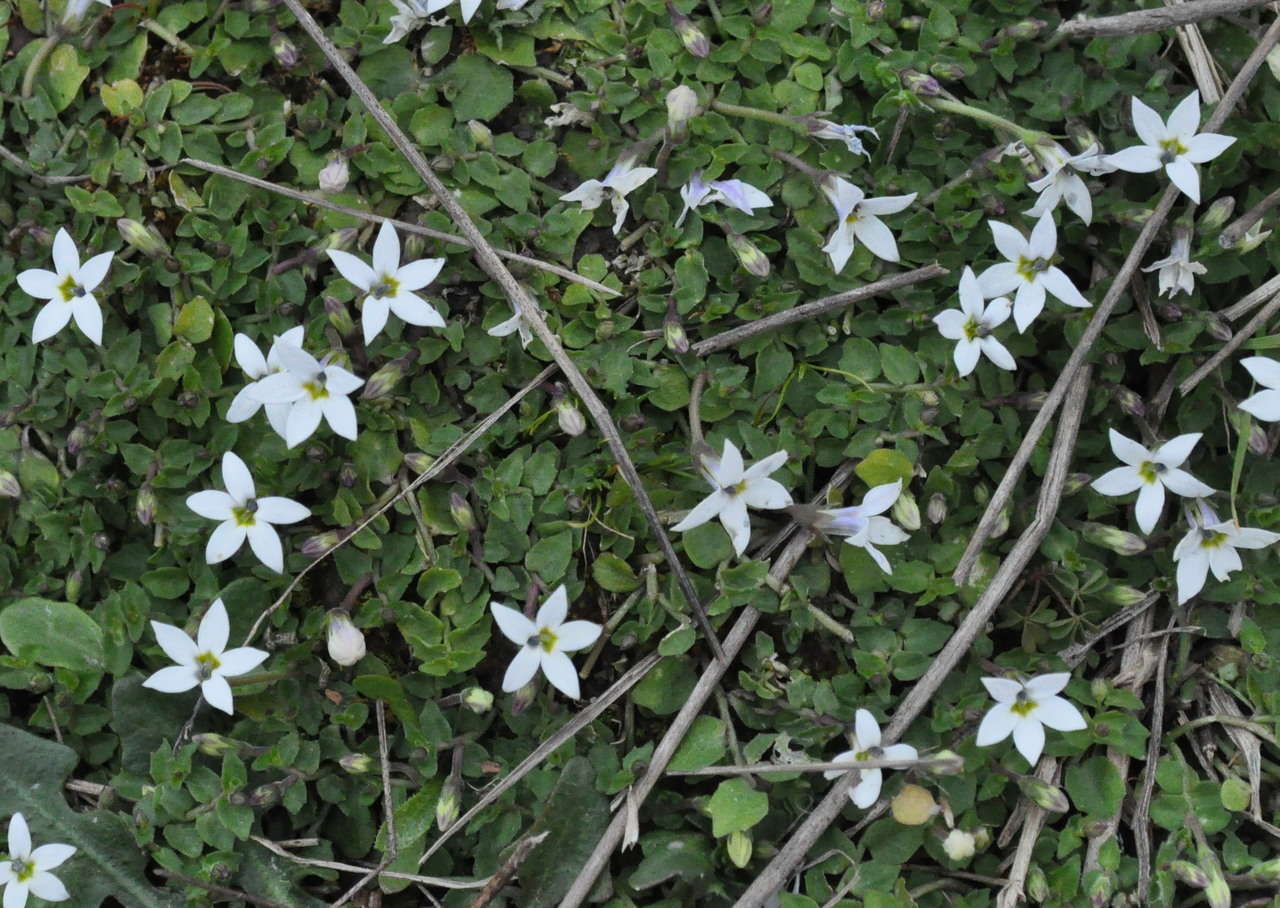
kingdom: Plantae
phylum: Tracheophyta
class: Magnoliopsida
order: Asterales
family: Campanulaceae
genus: Lobelia
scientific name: Lobelia pedunculata
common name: Matted pratia
